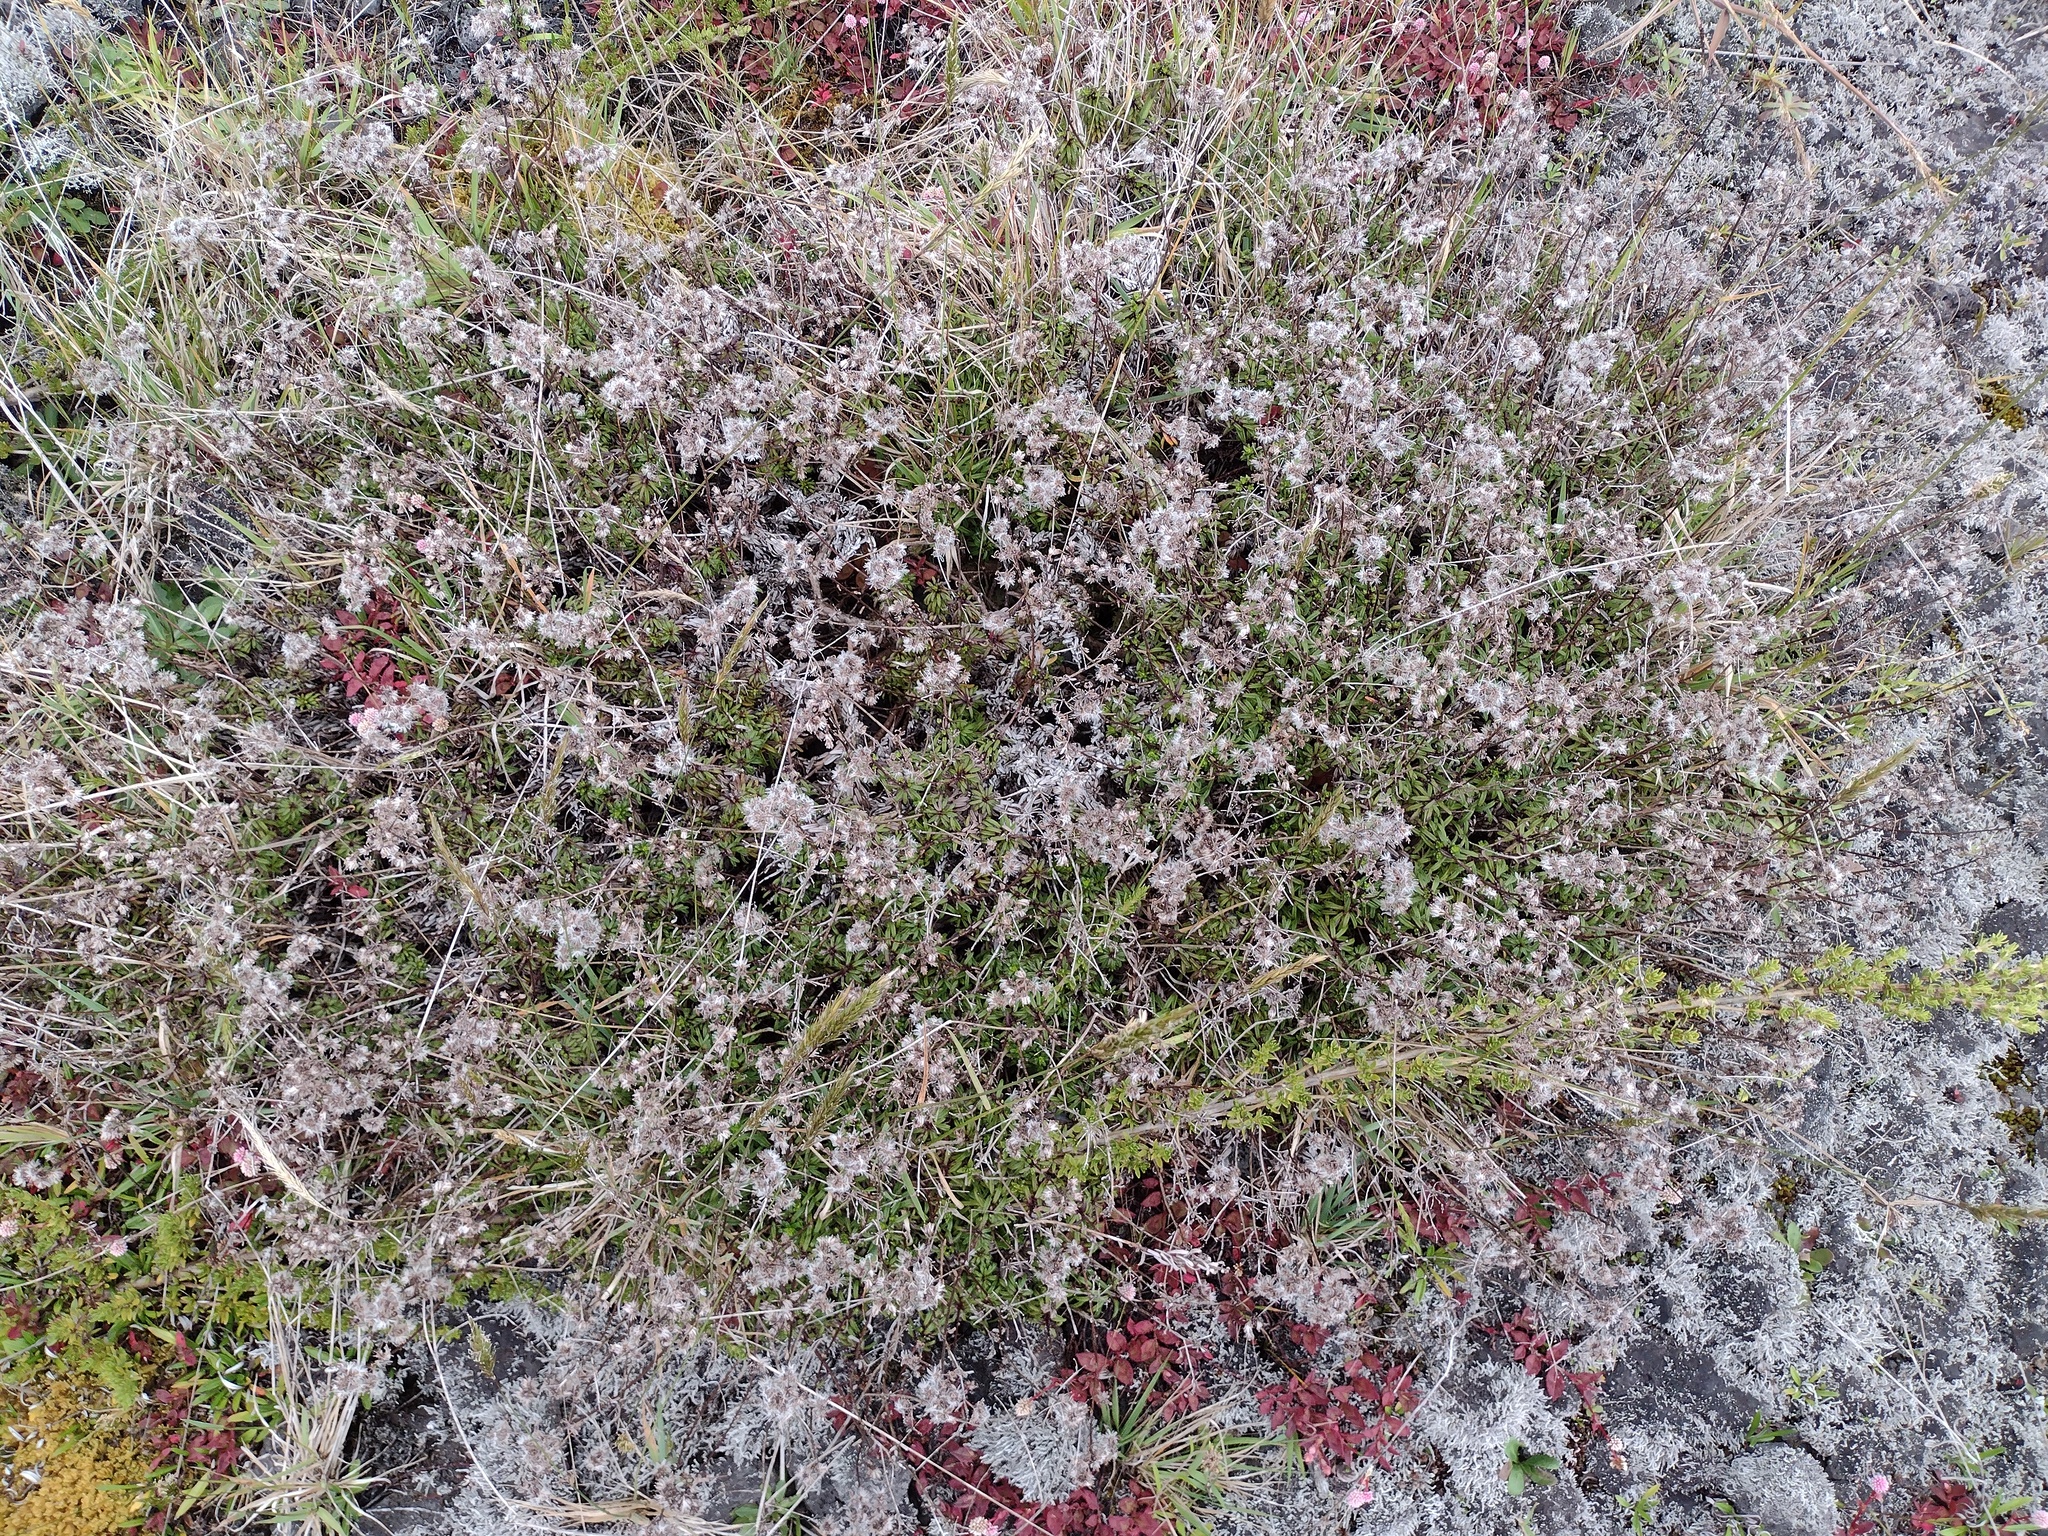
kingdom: Plantae
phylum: Tracheophyta
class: Magnoliopsida
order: Asterales
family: Asteraceae
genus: Dubautia
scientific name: Dubautia scabra
